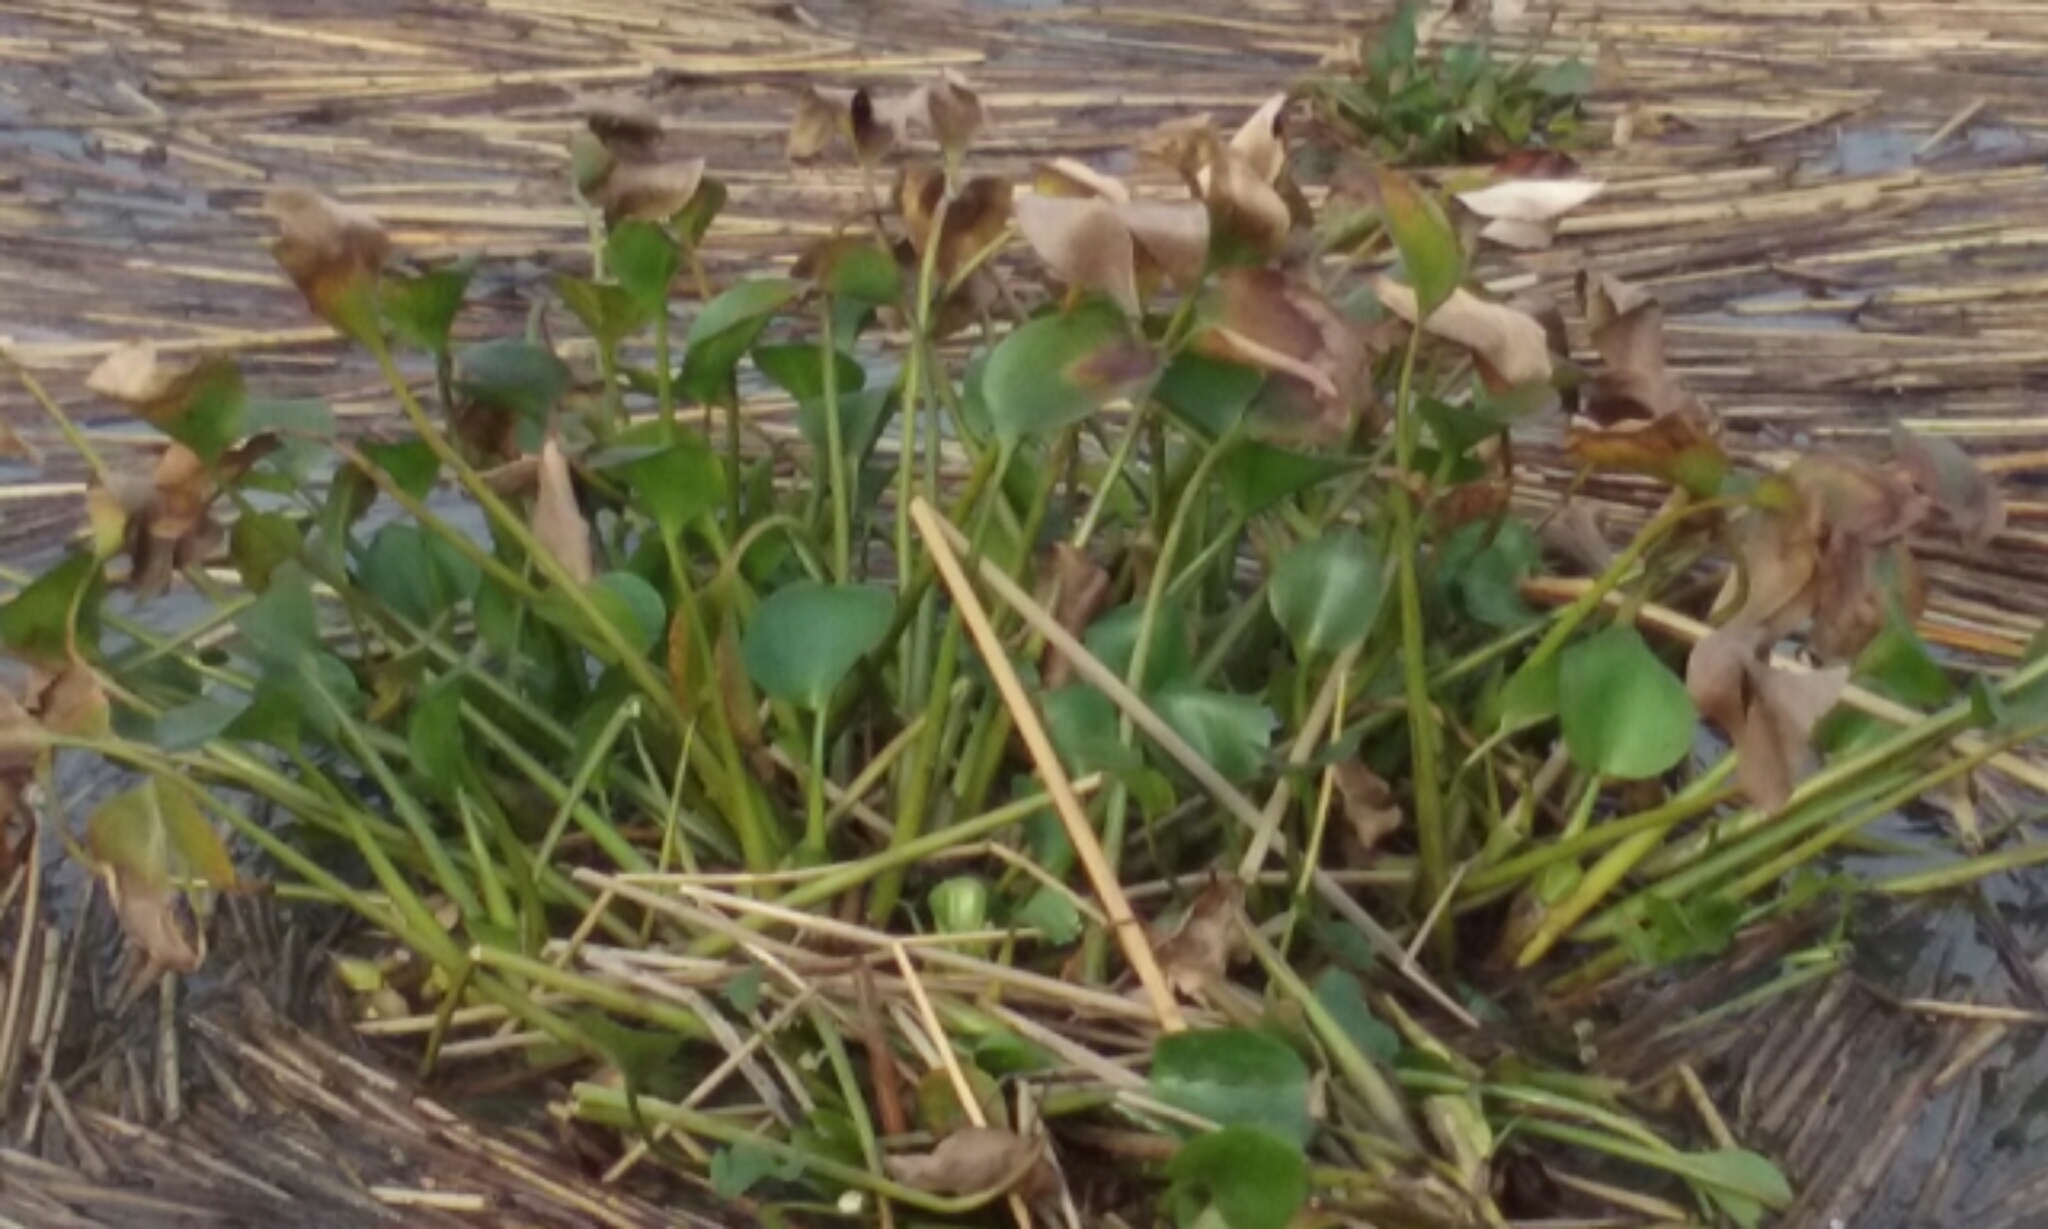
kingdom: Plantae
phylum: Tracheophyta
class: Liliopsida
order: Commelinales
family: Pontederiaceae
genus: Pontederia
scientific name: Pontederia crassipes
